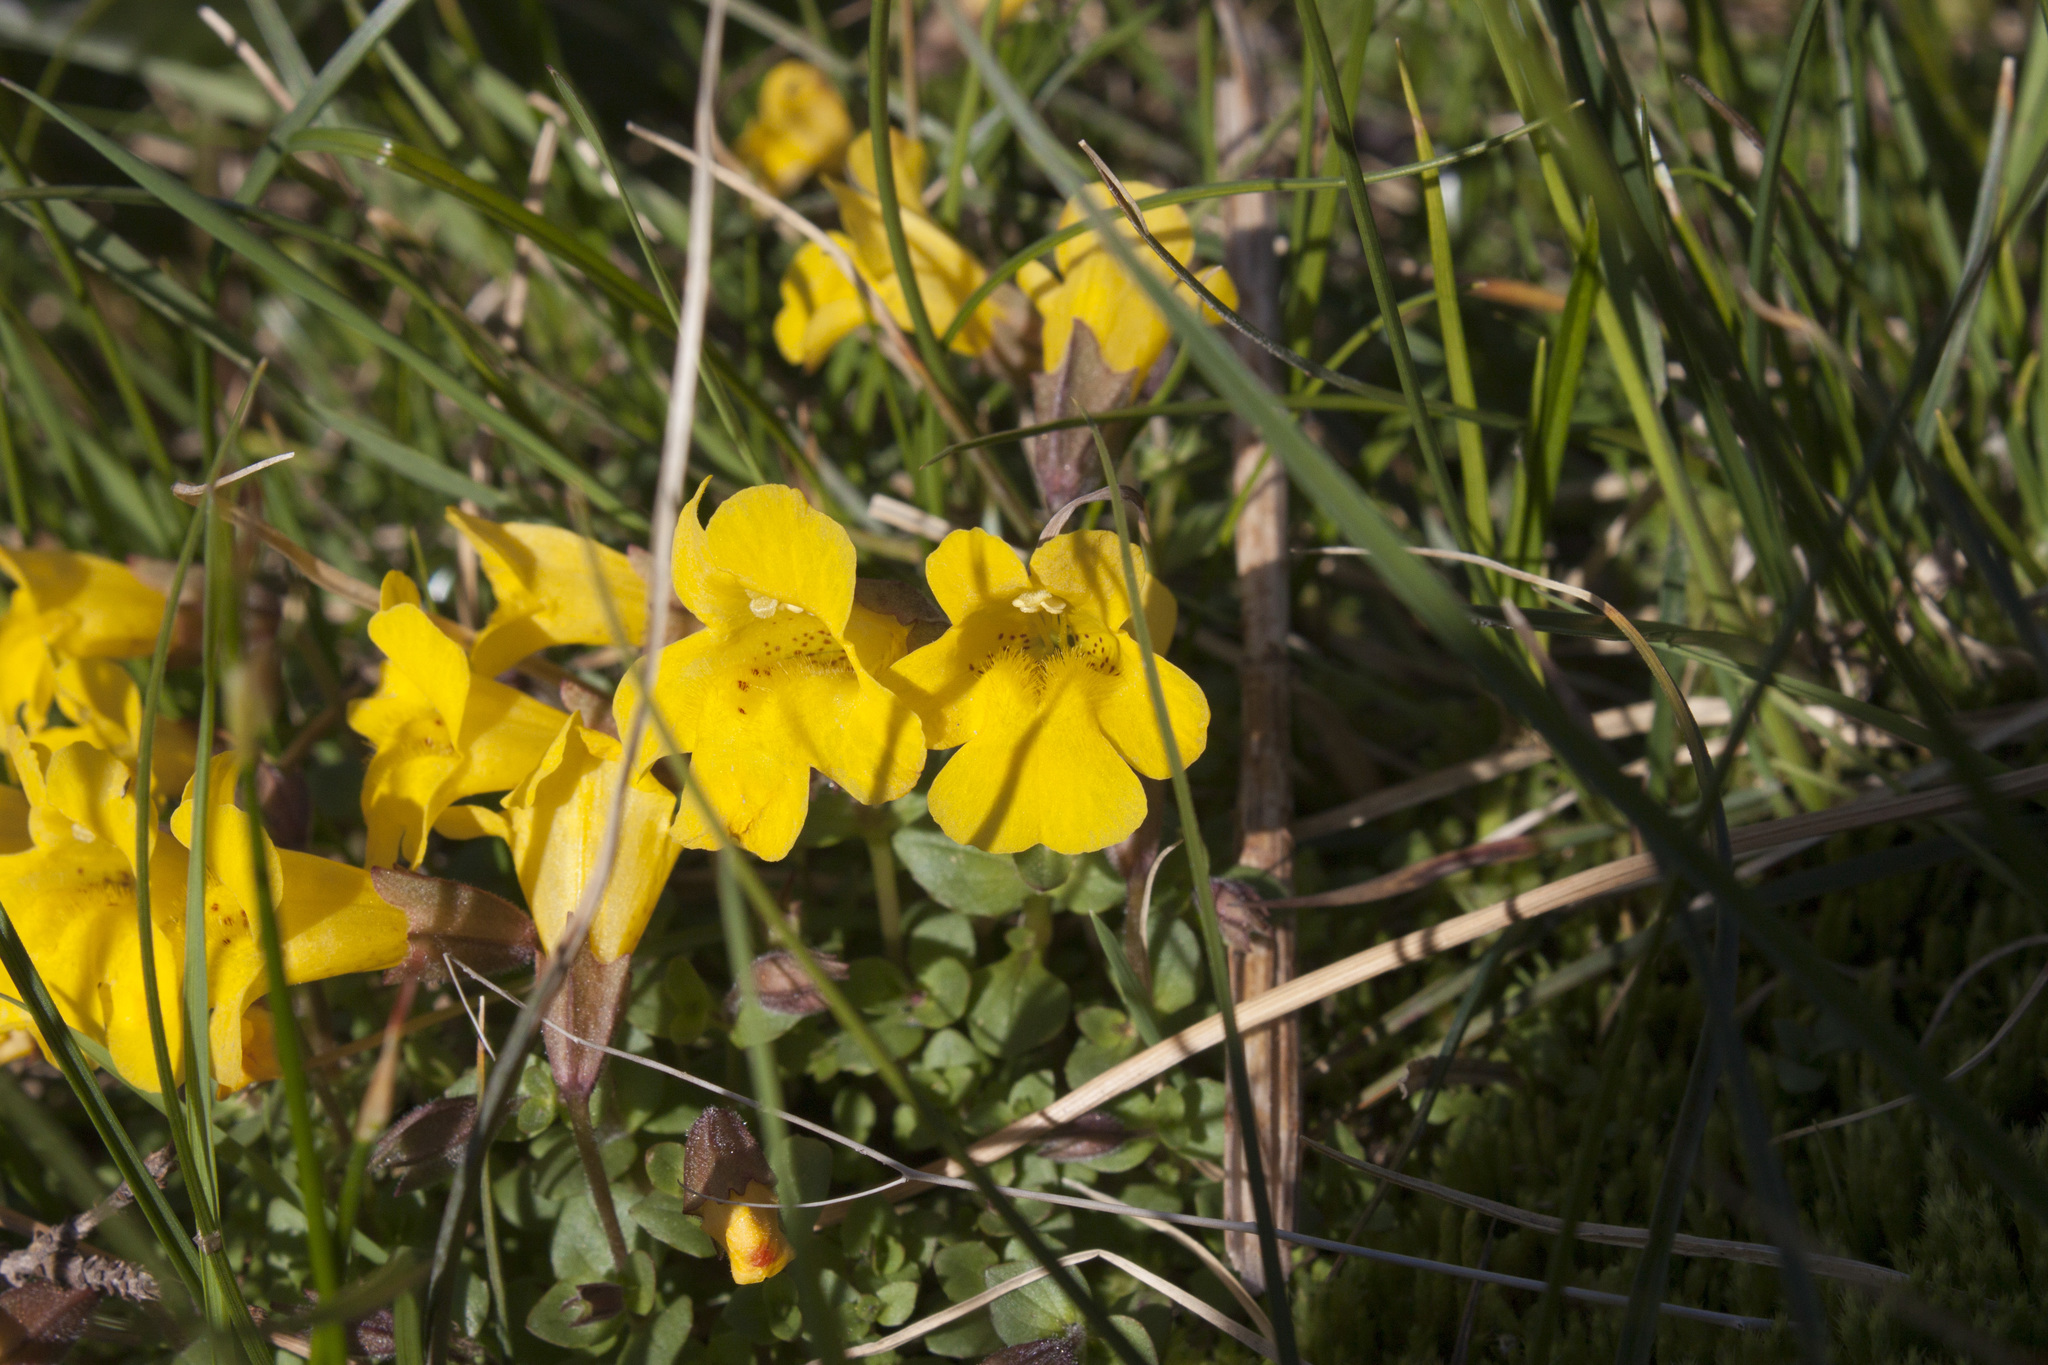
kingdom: Plantae
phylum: Tracheophyta
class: Magnoliopsida
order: Lamiales
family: Phrymaceae
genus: Erythranthe
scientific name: Erythranthe caespitosa
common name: Subalpine monkeyflower
